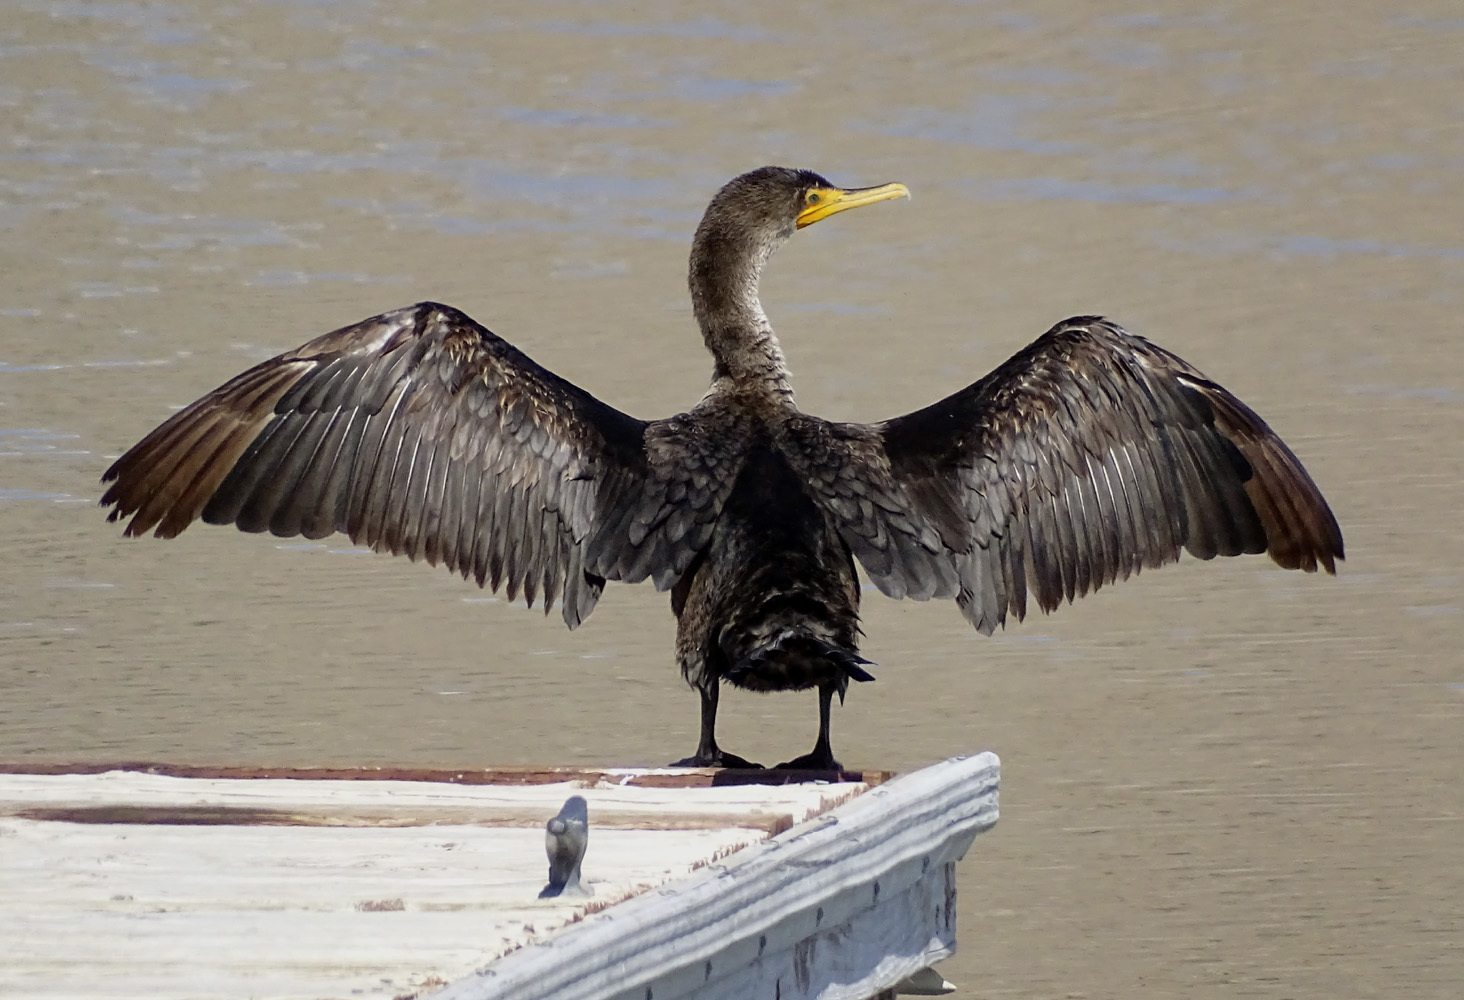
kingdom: Animalia
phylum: Chordata
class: Aves
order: Suliformes
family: Phalacrocoracidae
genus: Phalacrocorax
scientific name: Phalacrocorax auritus
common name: Double-crested cormorant
